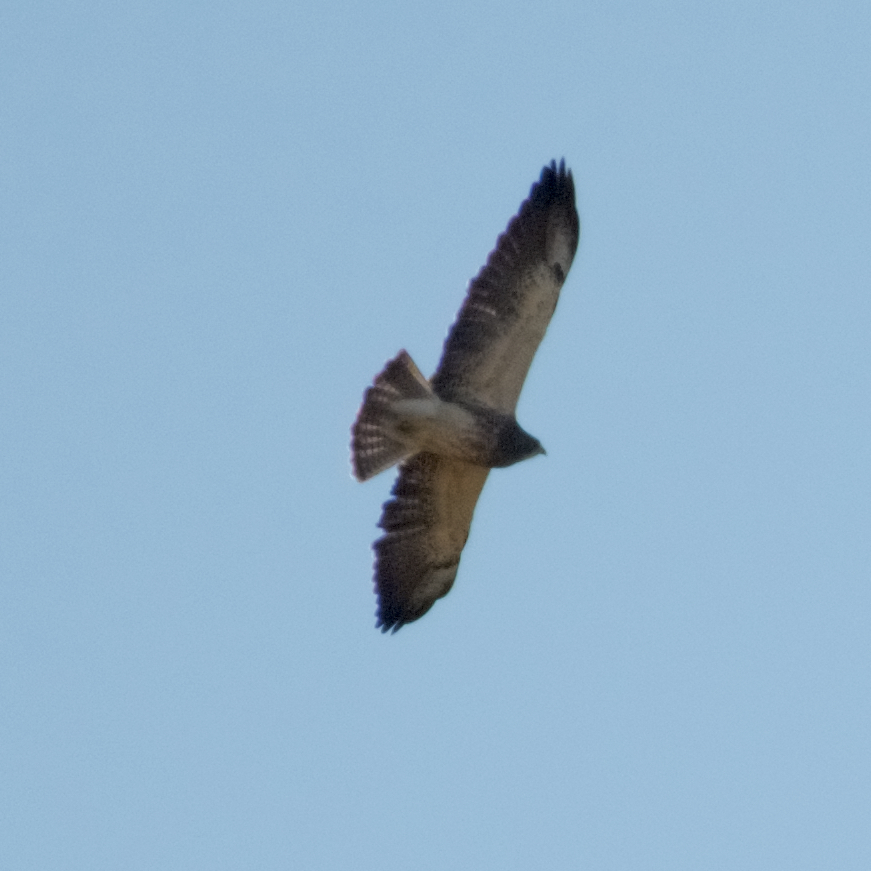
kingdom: Animalia
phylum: Chordata
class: Aves
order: Accipitriformes
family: Accipitridae
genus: Buteo
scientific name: Buteo swainsoni
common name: Swainson's hawk
